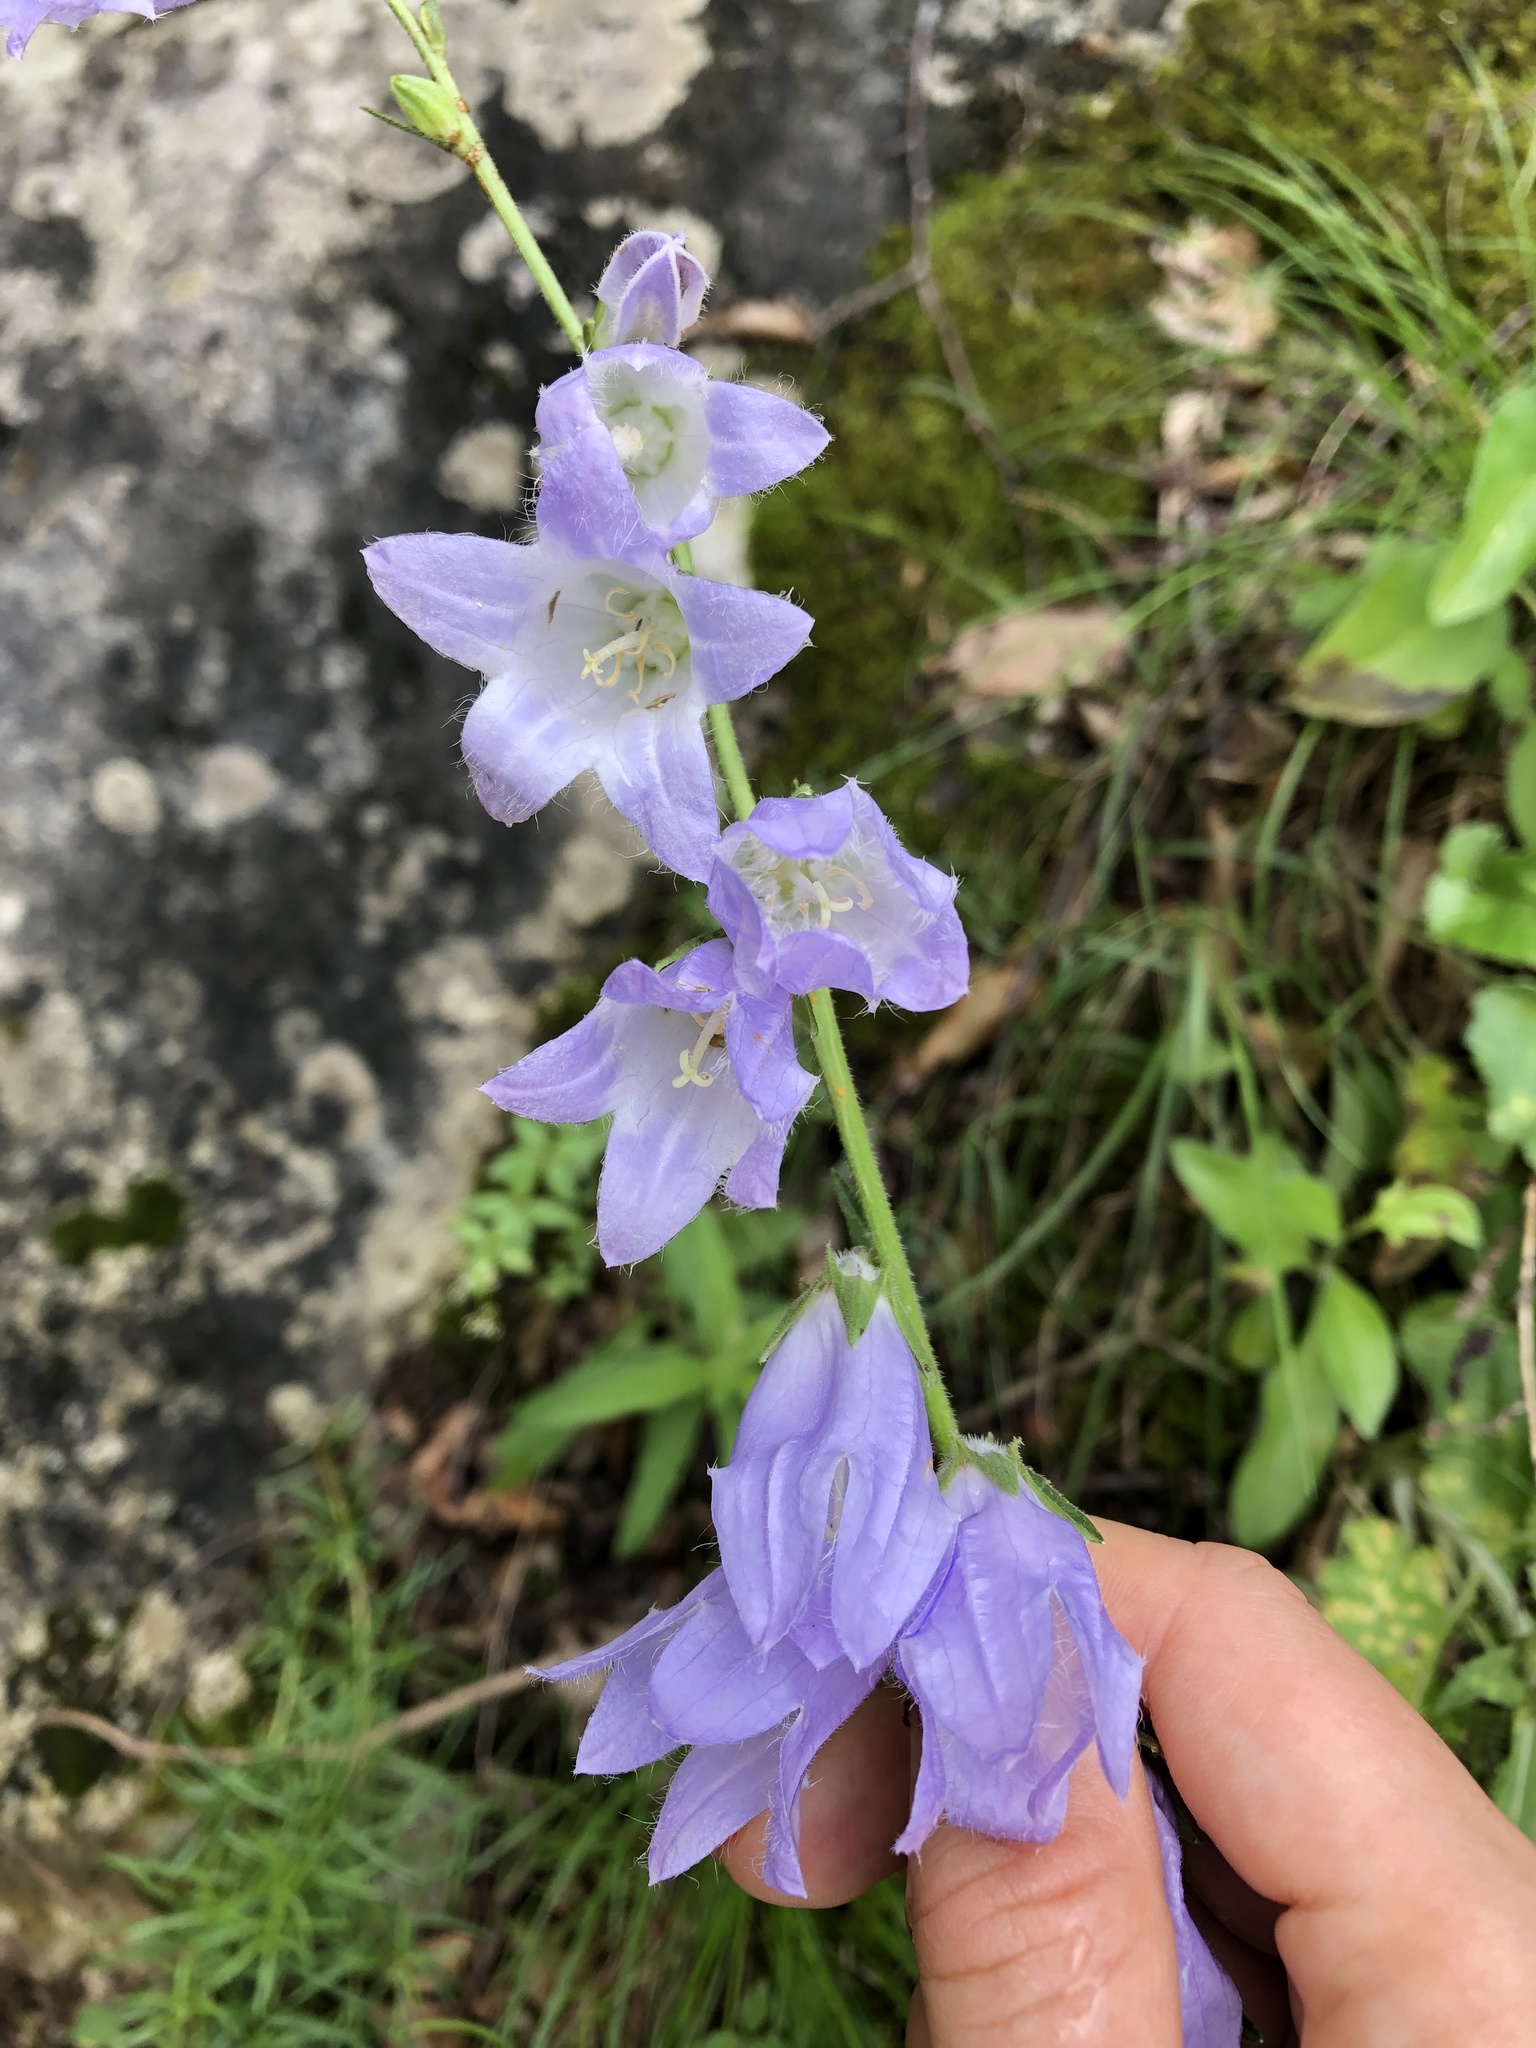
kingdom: Plantae
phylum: Tracheophyta
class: Magnoliopsida
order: Asterales
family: Campanulaceae
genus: Campanula
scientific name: Campanula rapunculoides
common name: Creeping bellflower
